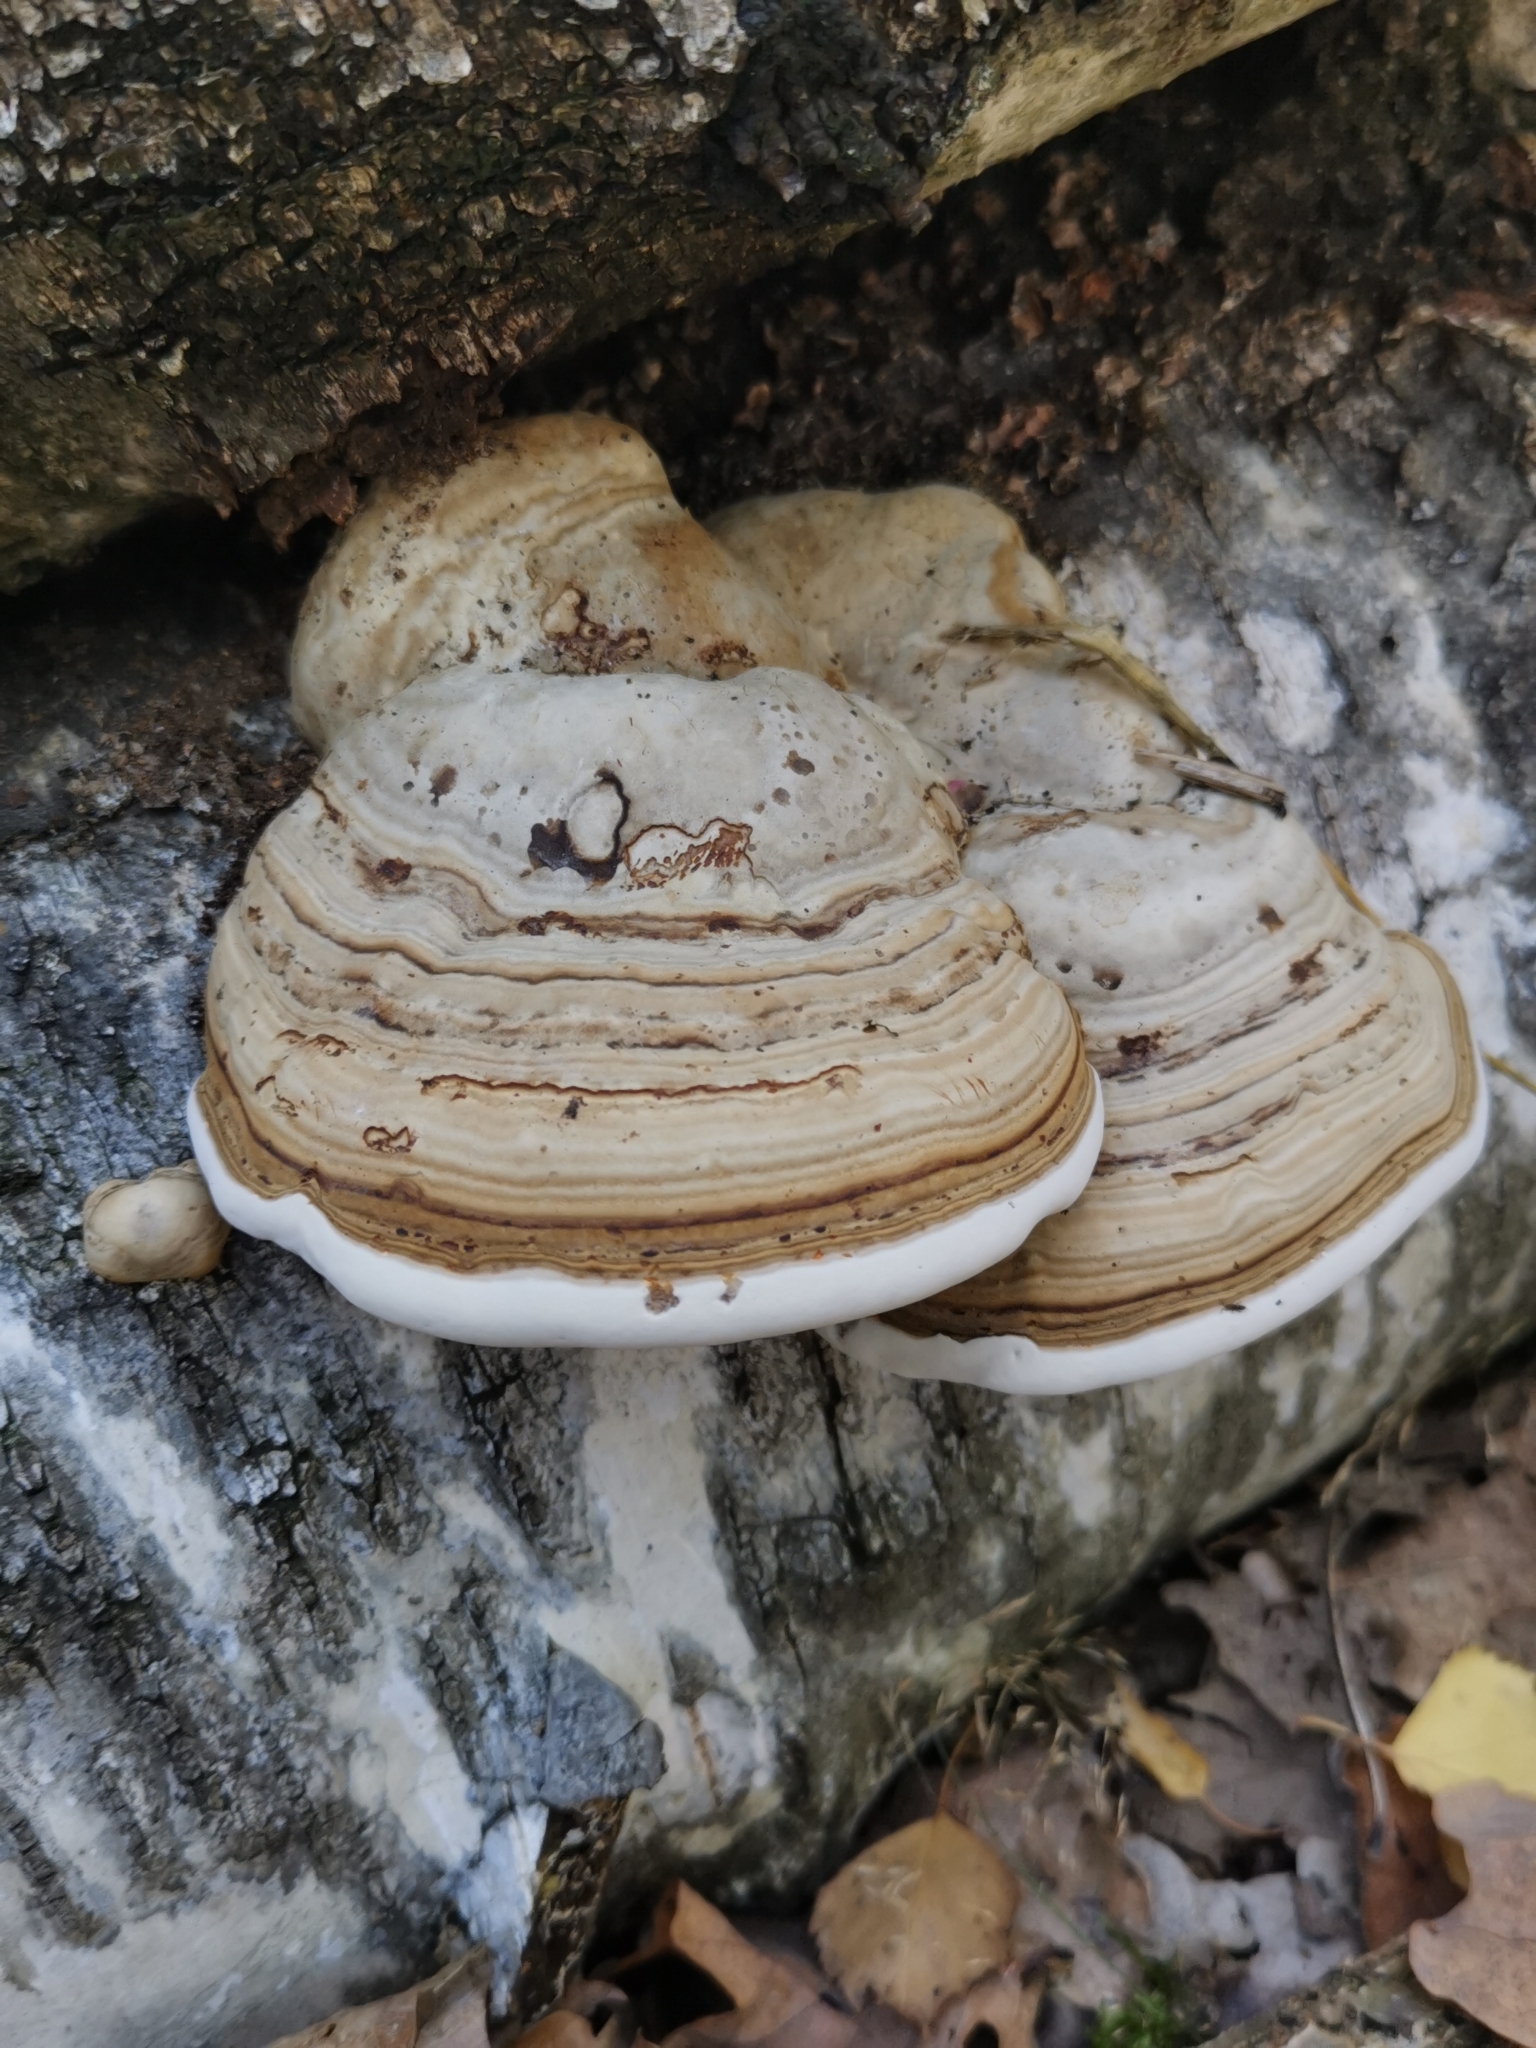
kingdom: Fungi
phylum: Basidiomycota
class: Agaricomycetes
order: Polyporales
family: Polyporaceae
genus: Fomes
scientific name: Fomes fomentarius
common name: Hoof fungus
